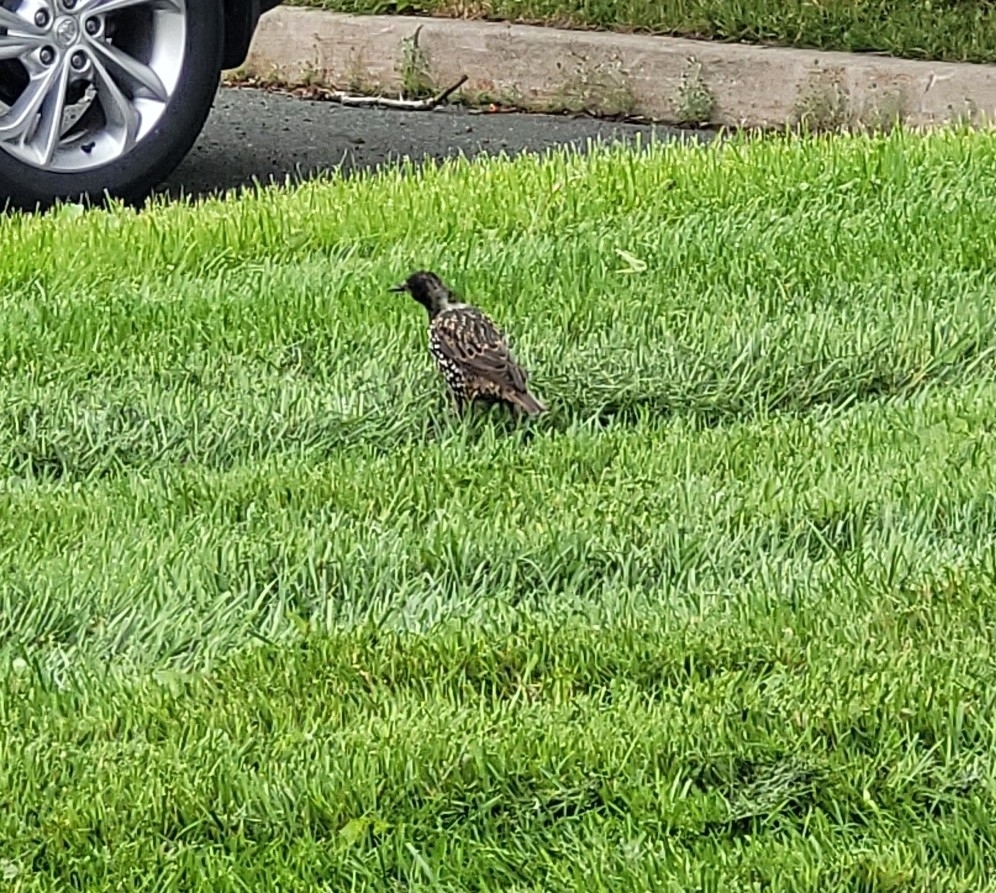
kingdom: Animalia
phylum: Chordata
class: Aves
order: Passeriformes
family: Sturnidae
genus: Sturnus
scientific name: Sturnus vulgaris
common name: Common starling
